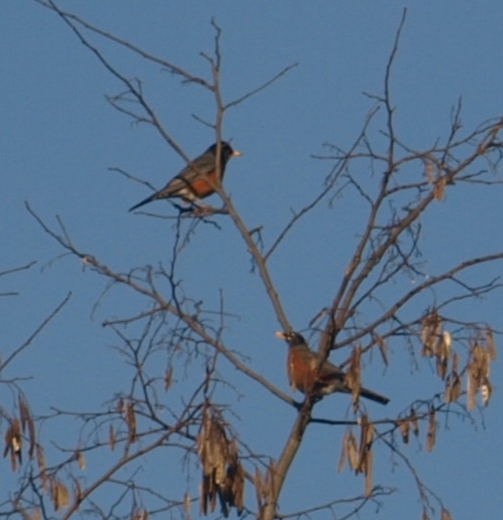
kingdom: Animalia
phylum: Chordata
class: Aves
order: Passeriformes
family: Turdidae
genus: Turdus
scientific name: Turdus migratorius
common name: American robin
